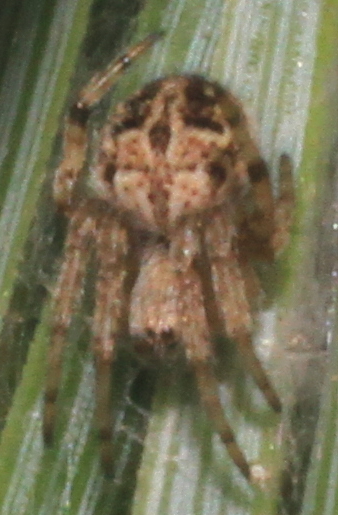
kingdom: Animalia
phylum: Arthropoda
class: Arachnida
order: Araneae
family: Araneidae
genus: Agalenatea
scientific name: Agalenatea redii
